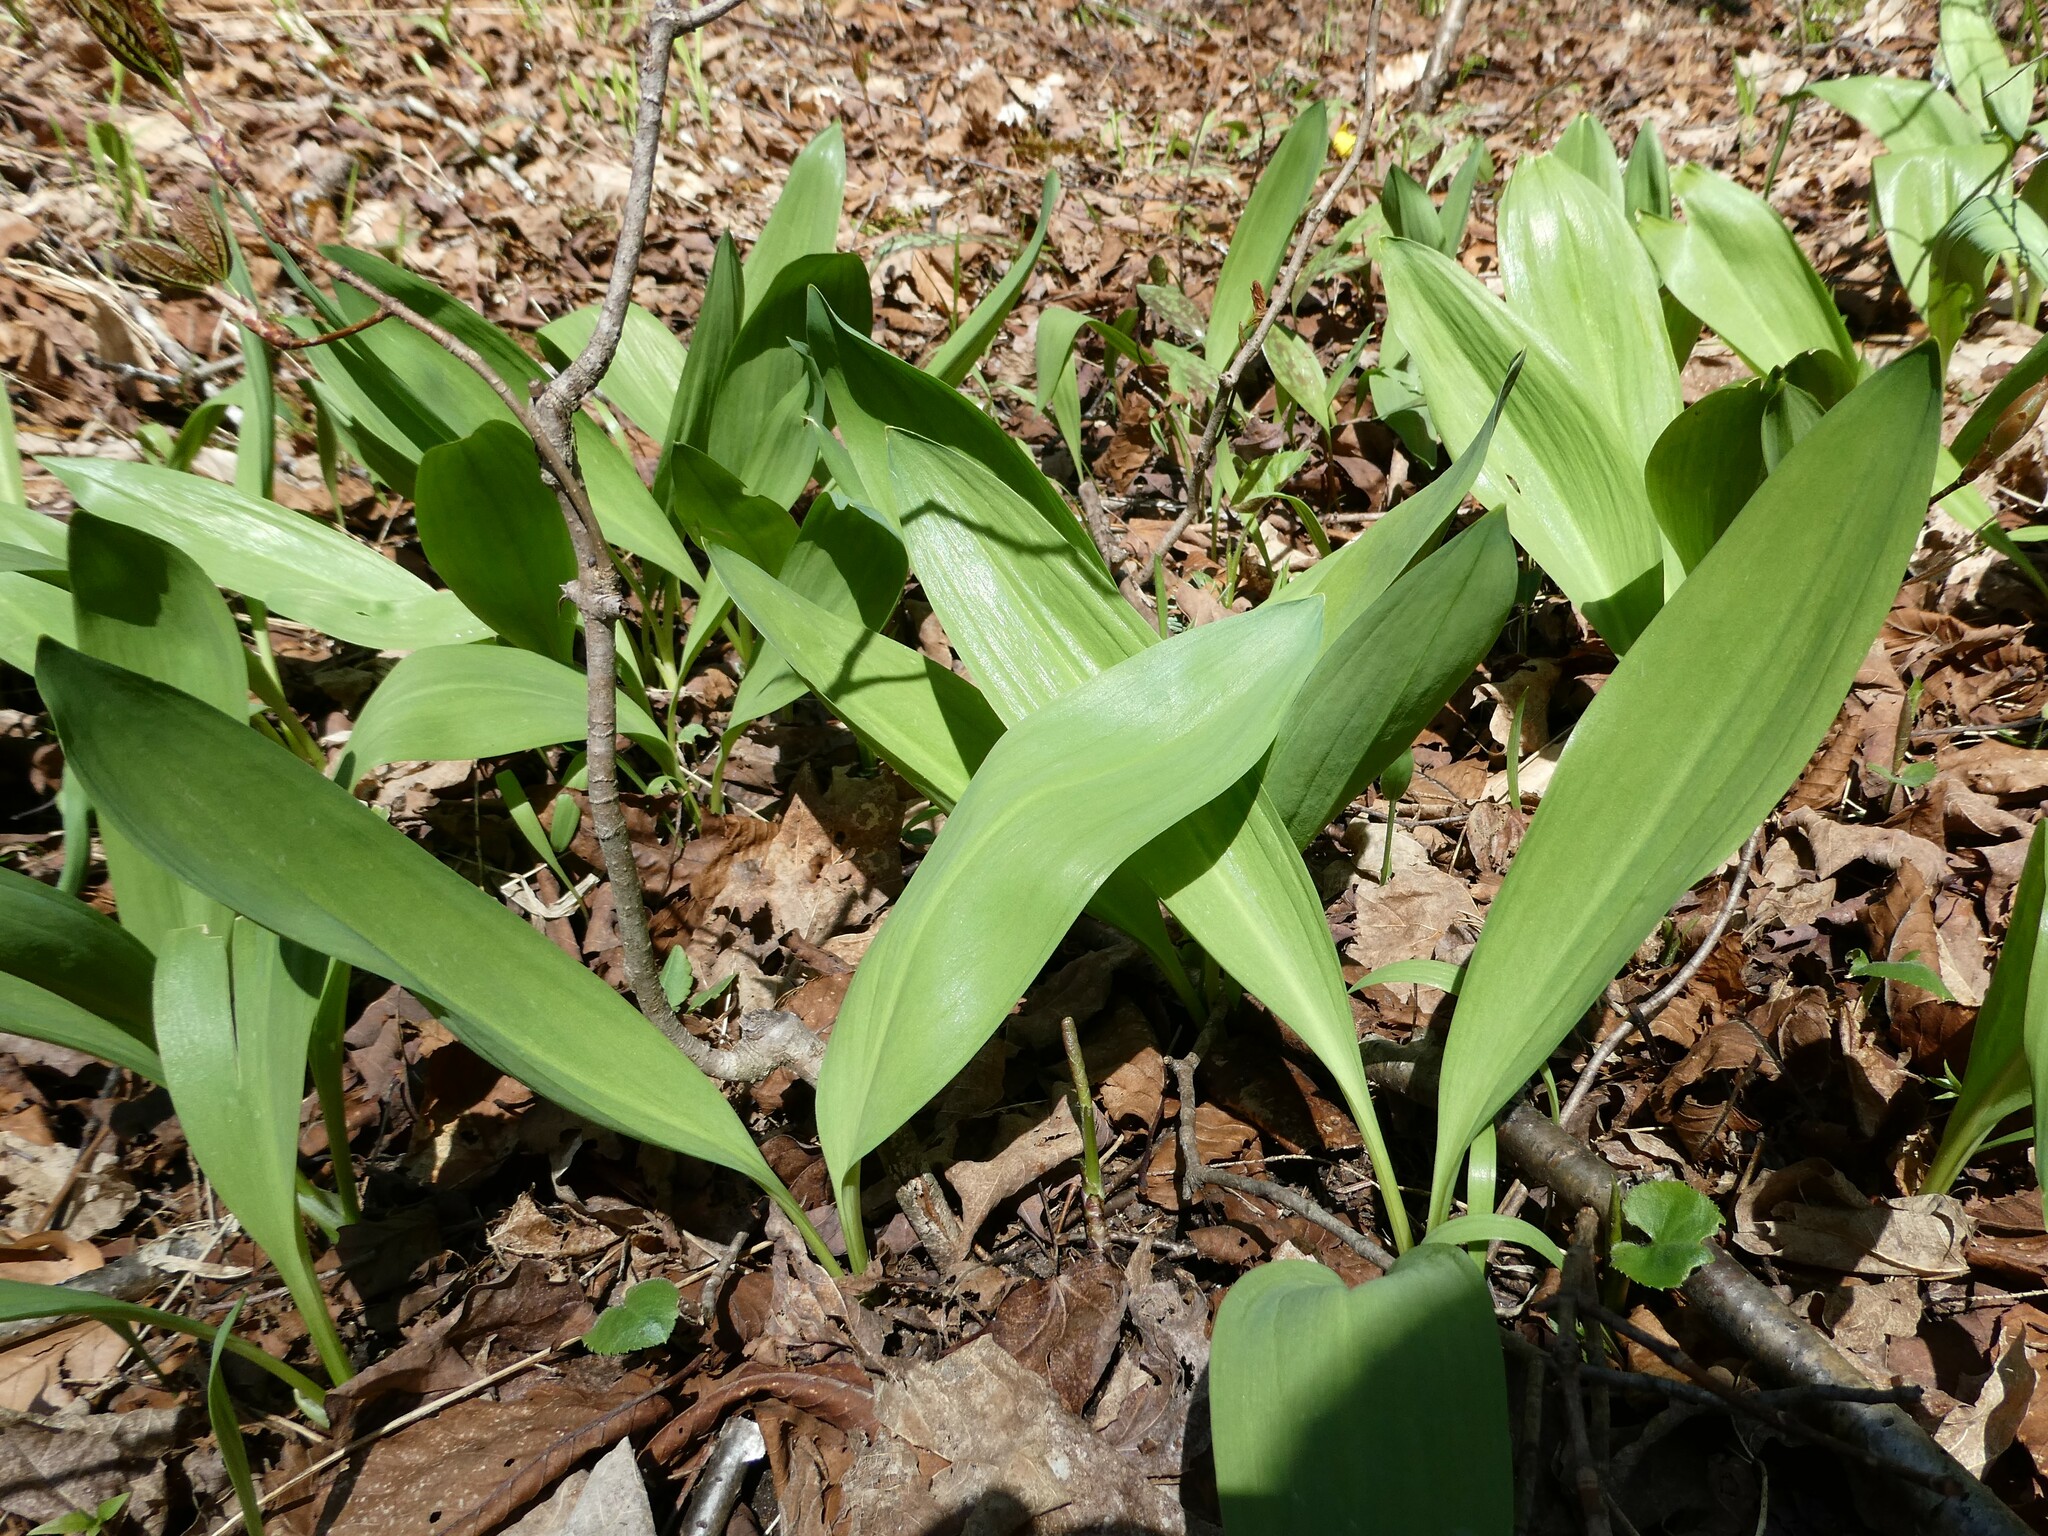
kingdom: Plantae
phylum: Tracheophyta
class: Liliopsida
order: Asparagales
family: Amaryllidaceae
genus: Allium
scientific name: Allium tricoccum
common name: Ramp
